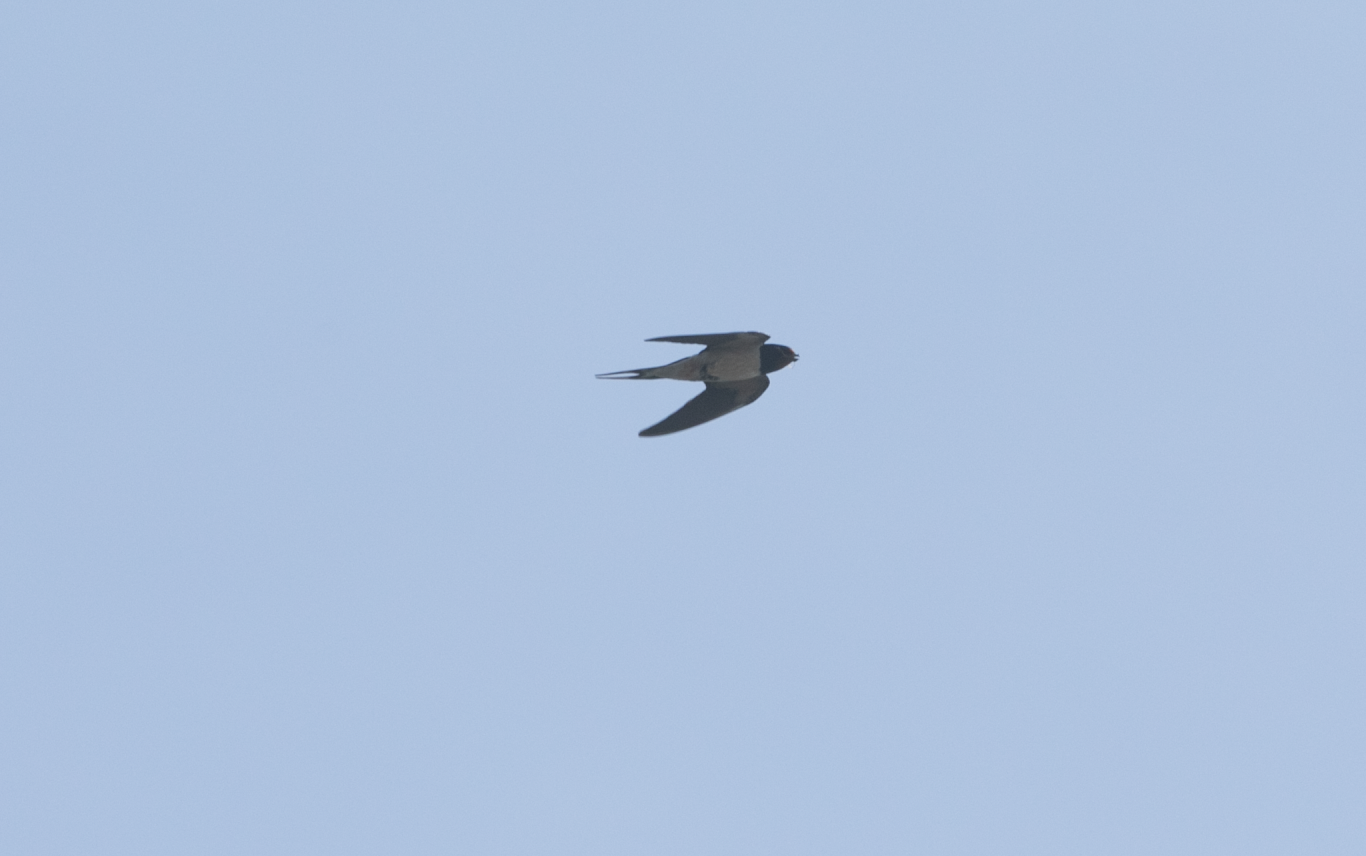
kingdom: Animalia
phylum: Chordata
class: Aves
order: Passeriformes
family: Hirundinidae
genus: Hirundo
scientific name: Hirundo rustica
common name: Barn swallow
